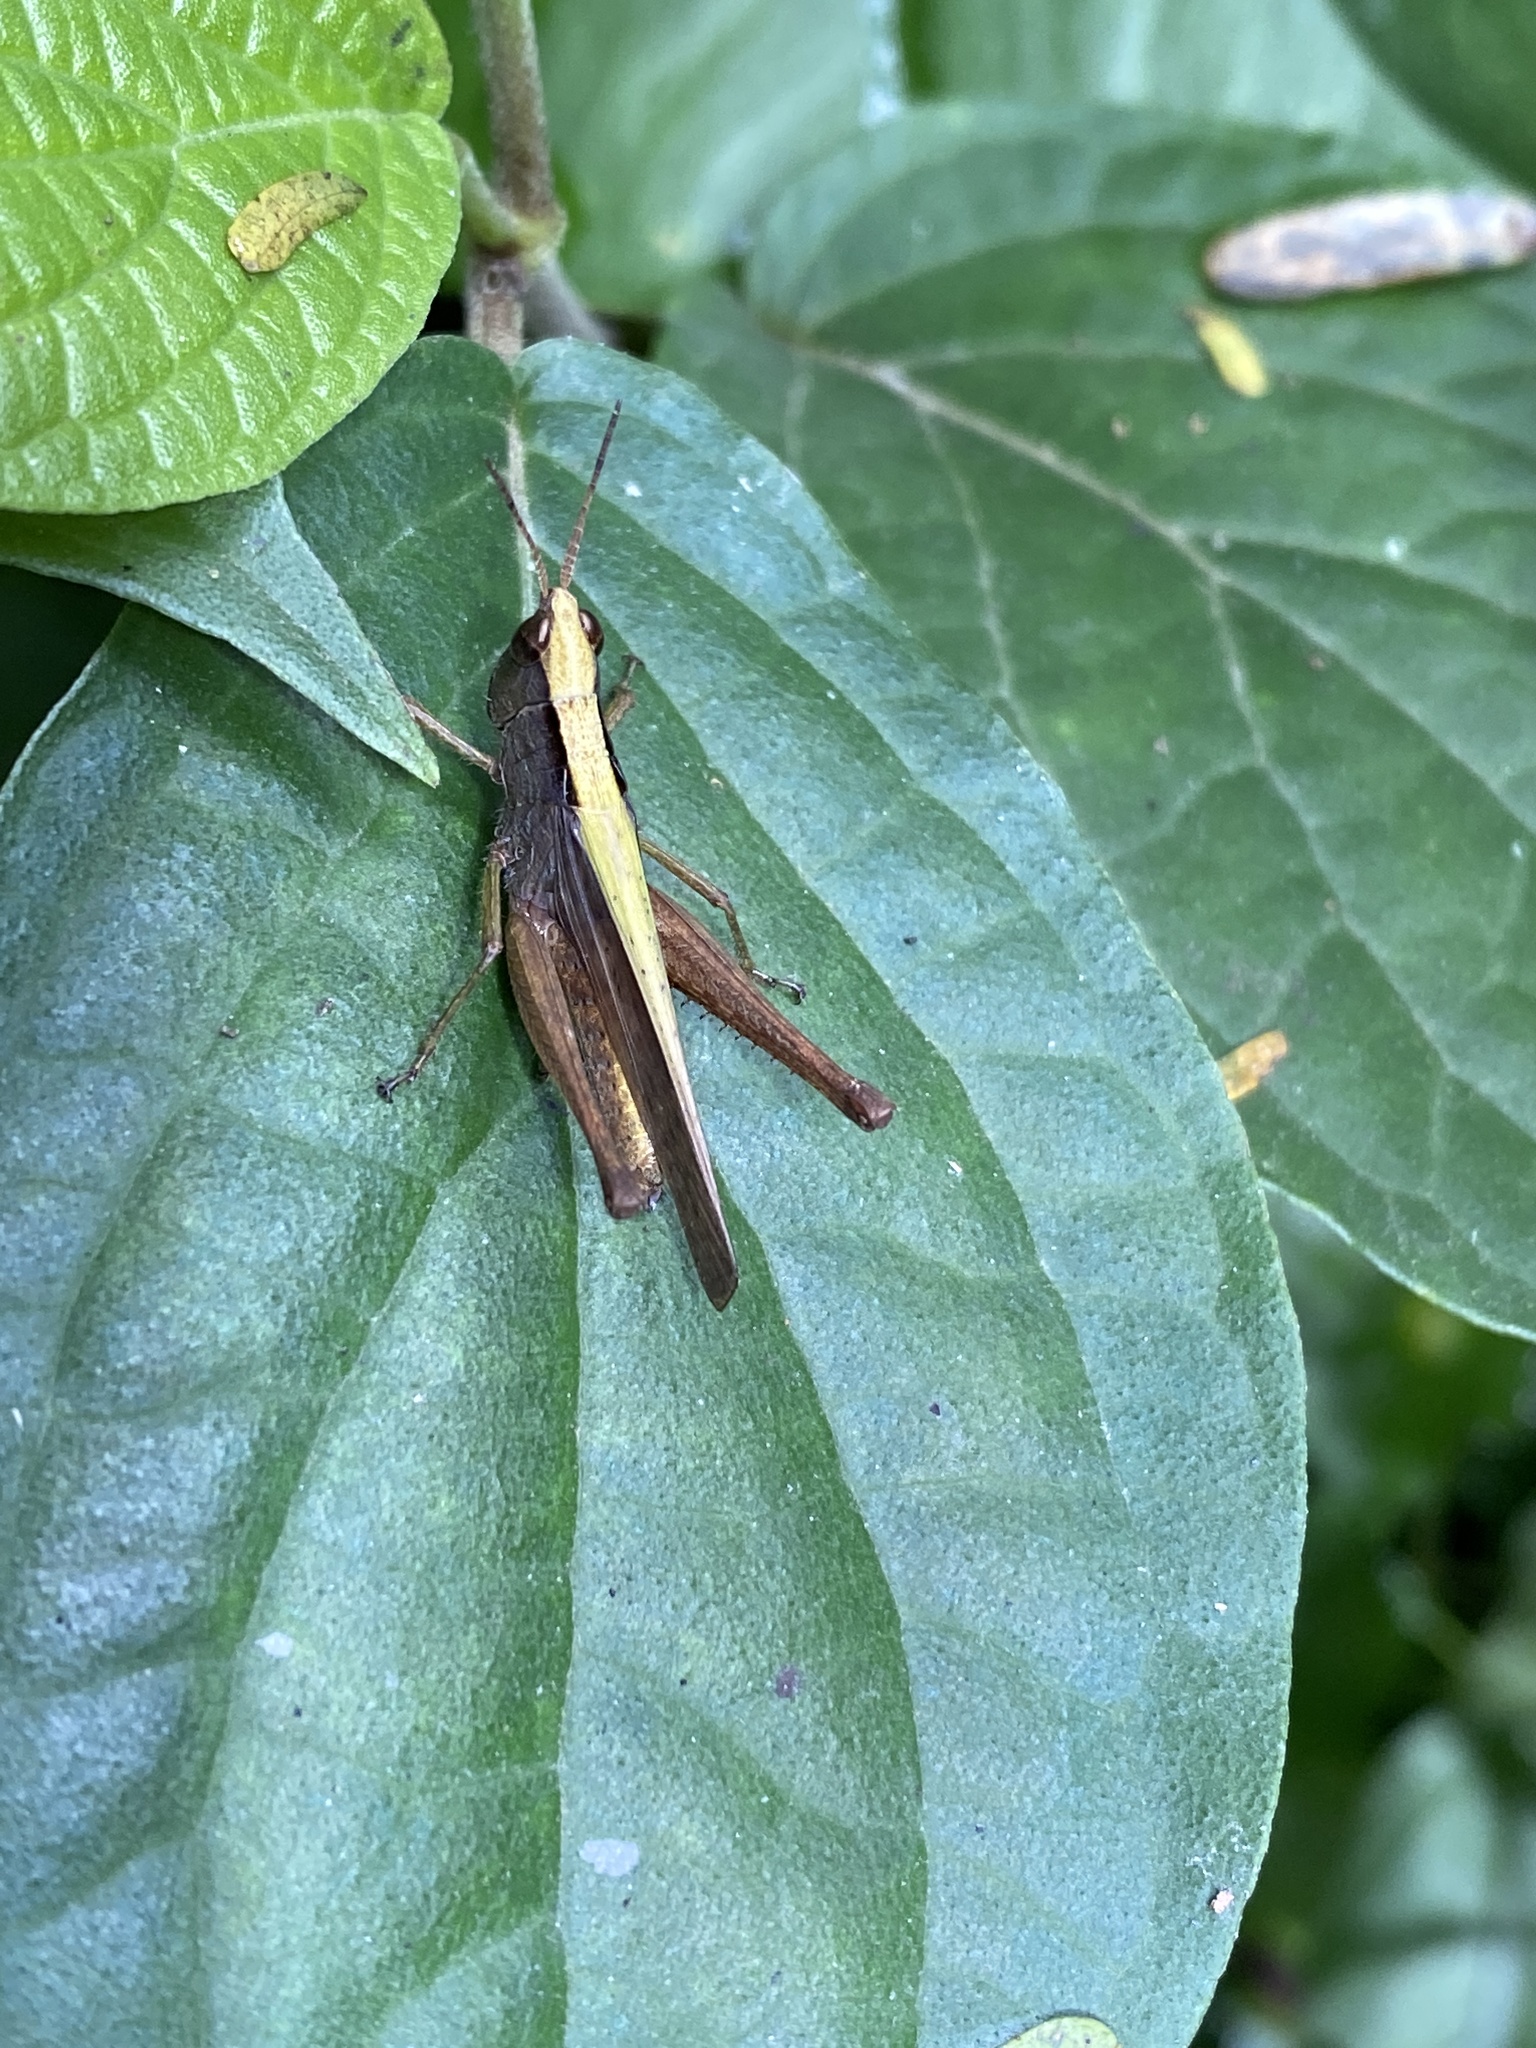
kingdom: Animalia
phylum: Arthropoda
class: Insecta
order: Orthoptera
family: Acrididae
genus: Orphula
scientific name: Orphula azteca
